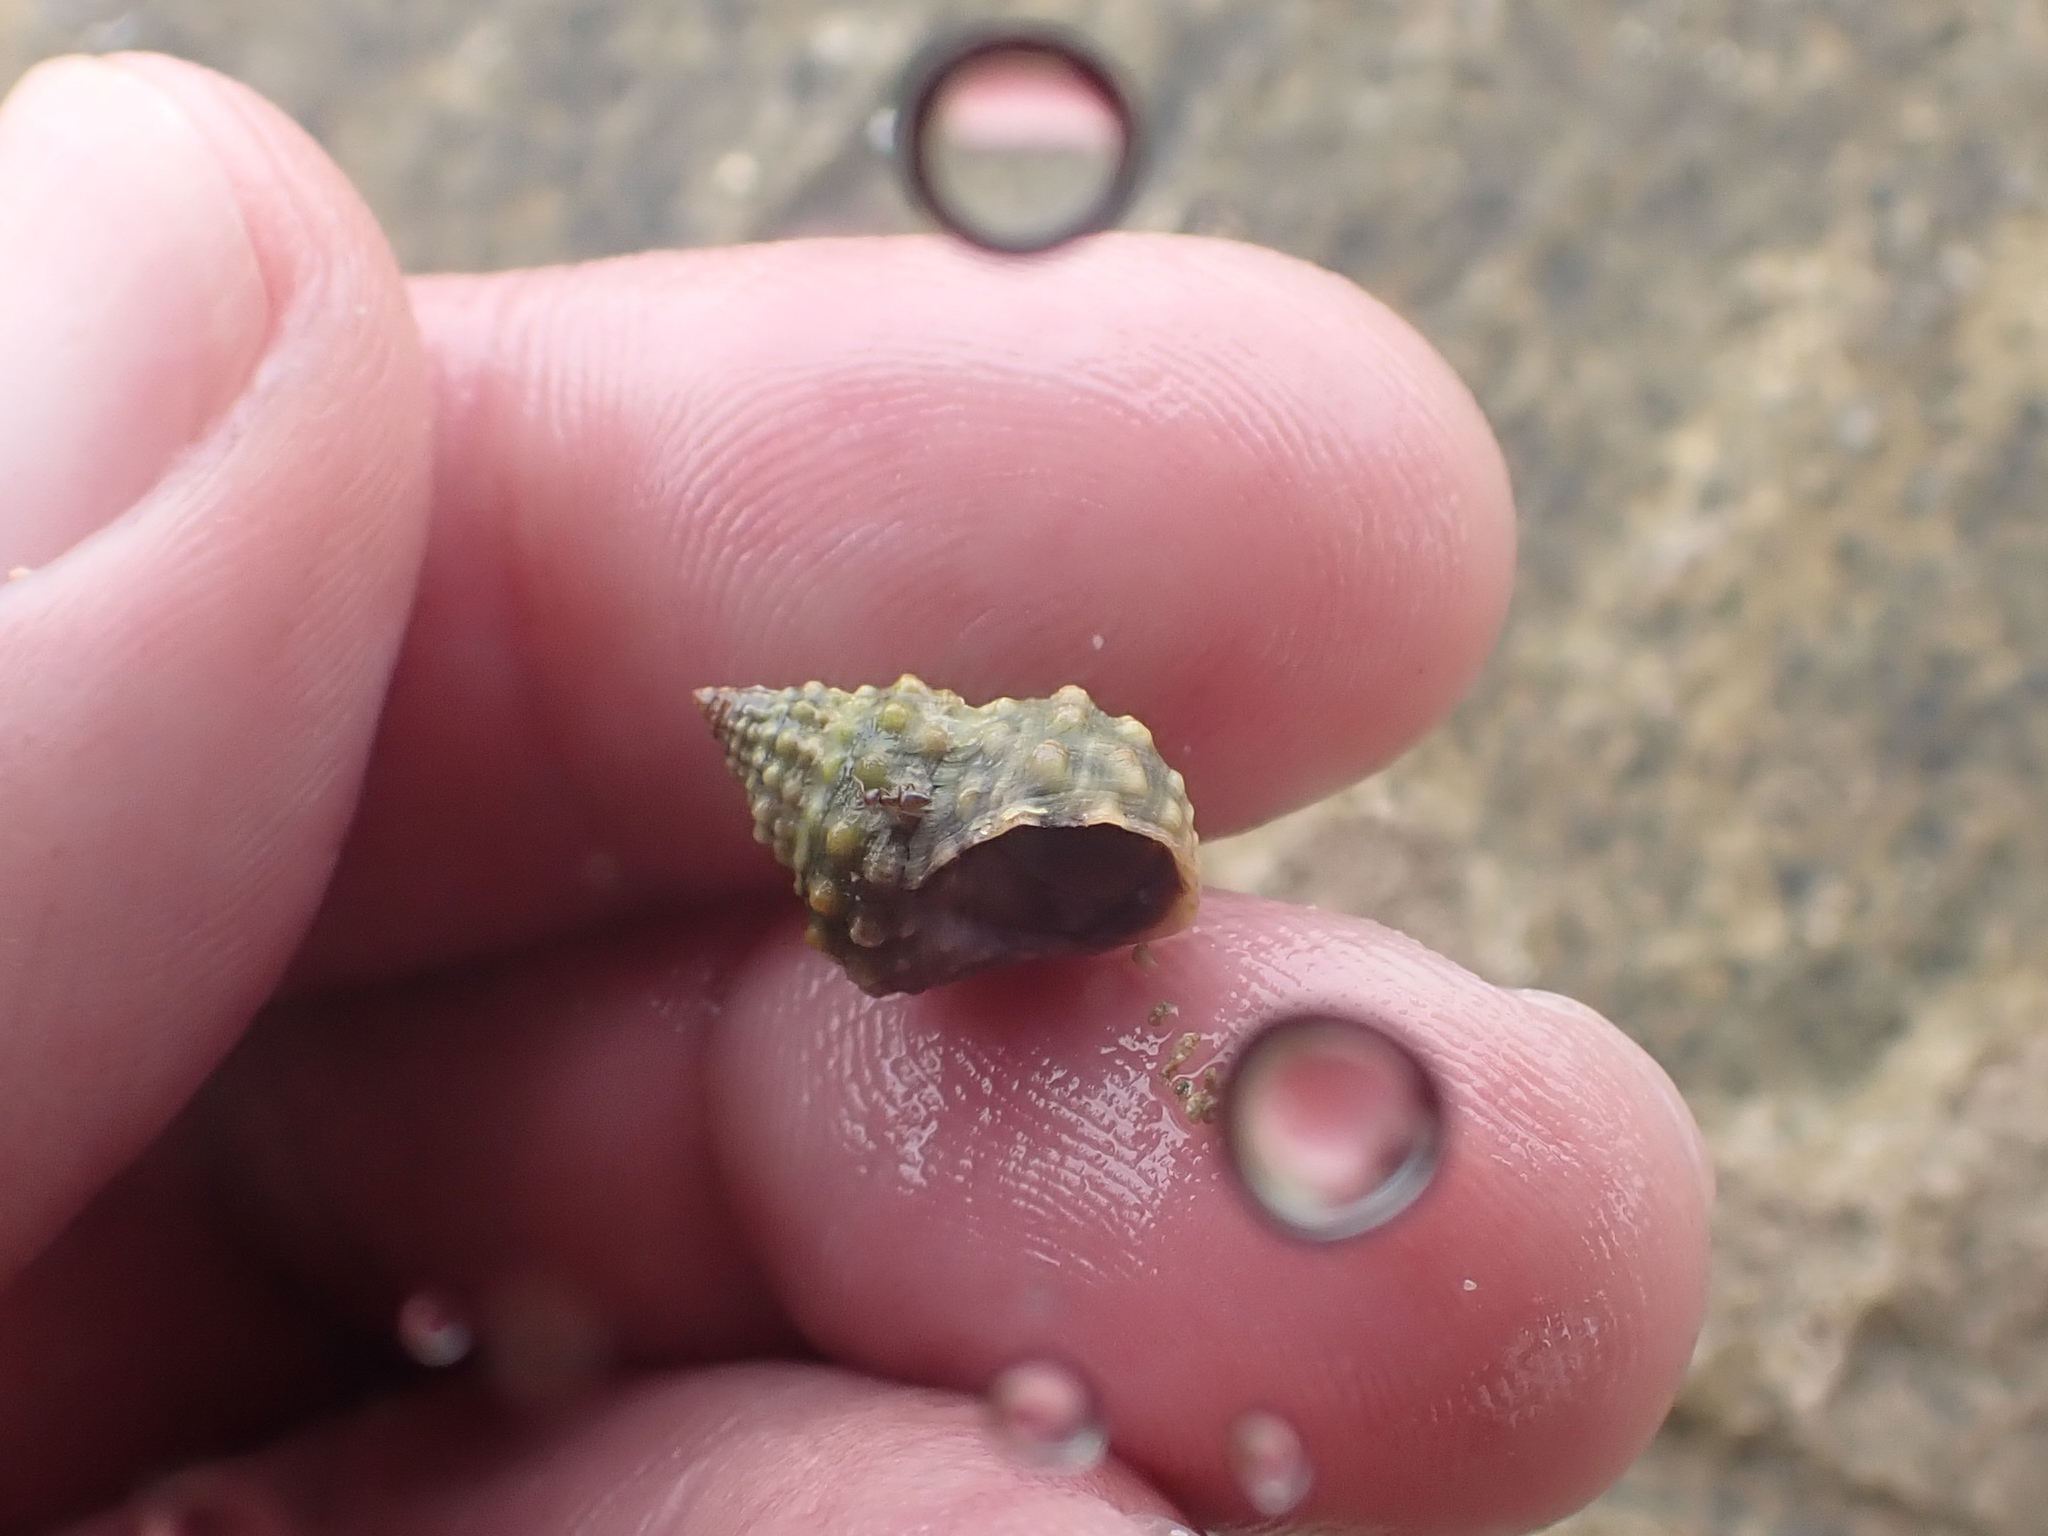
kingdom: Animalia
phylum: Mollusca
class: Gastropoda
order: Littorinimorpha
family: Littorinidae
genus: Cenchritis
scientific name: Cenchritis muricatus
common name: Beaded periwinkle
